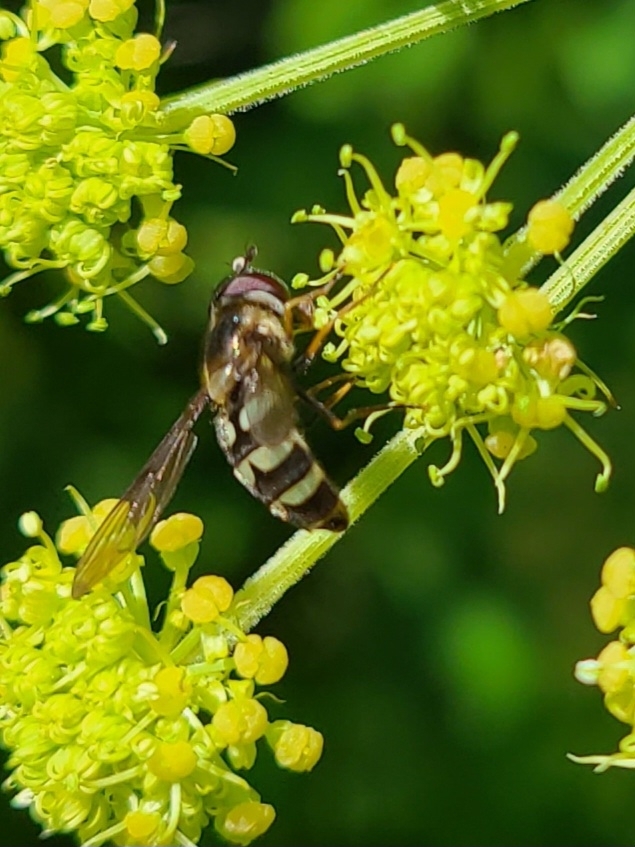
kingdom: Animalia
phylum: Arthropoda
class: Insecta
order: Diptera
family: Syrphidae
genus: Megasyrphus
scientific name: Megasyrphus laxus
